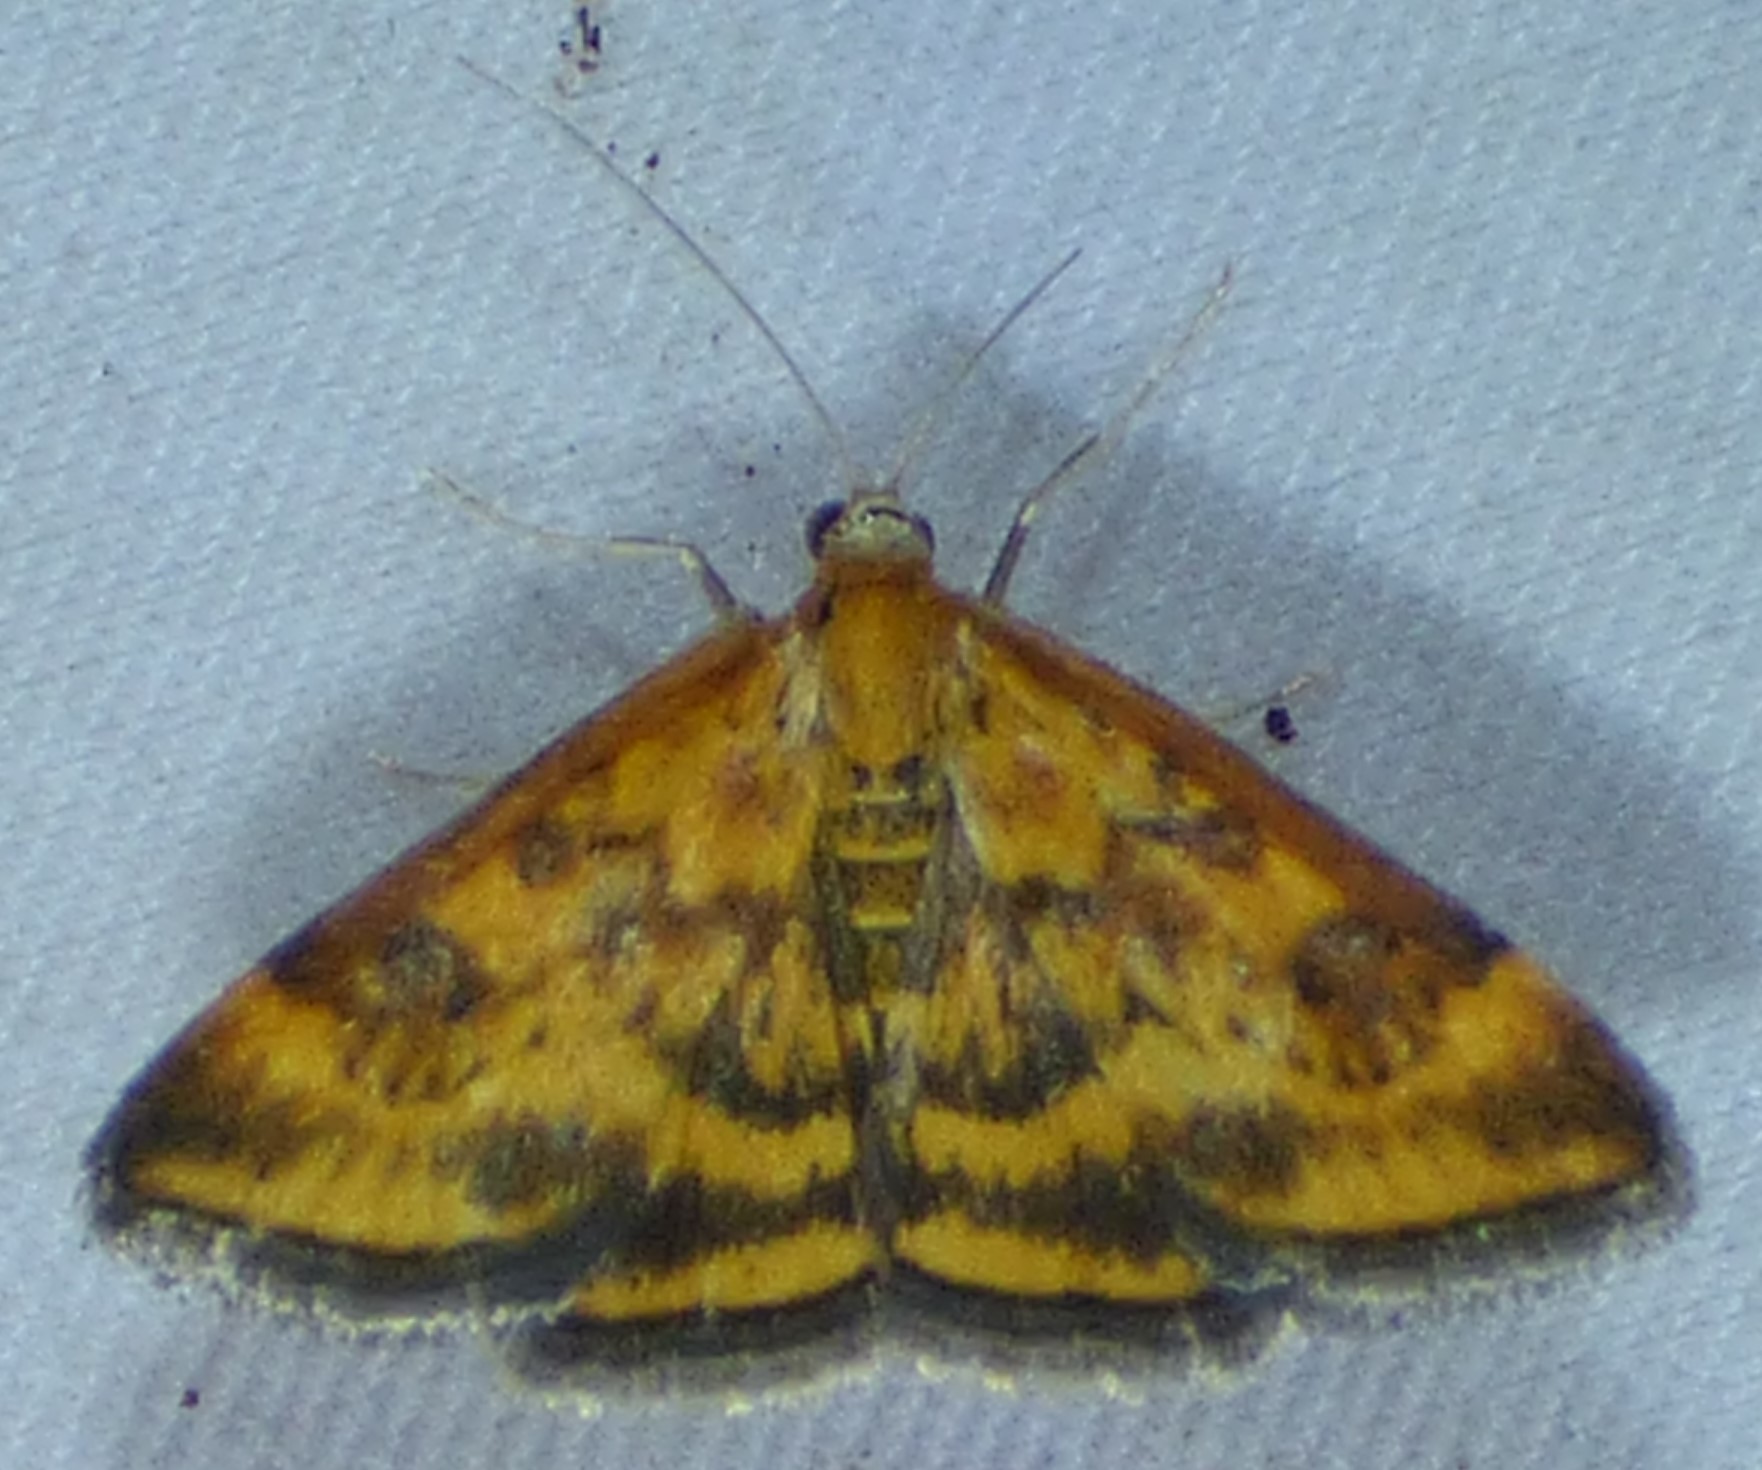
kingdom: Animalia
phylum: Arthropoda
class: Insecta
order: Lepidoptera
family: Crambidae
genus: Pyrausta
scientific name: Pyrausta subsequalis
